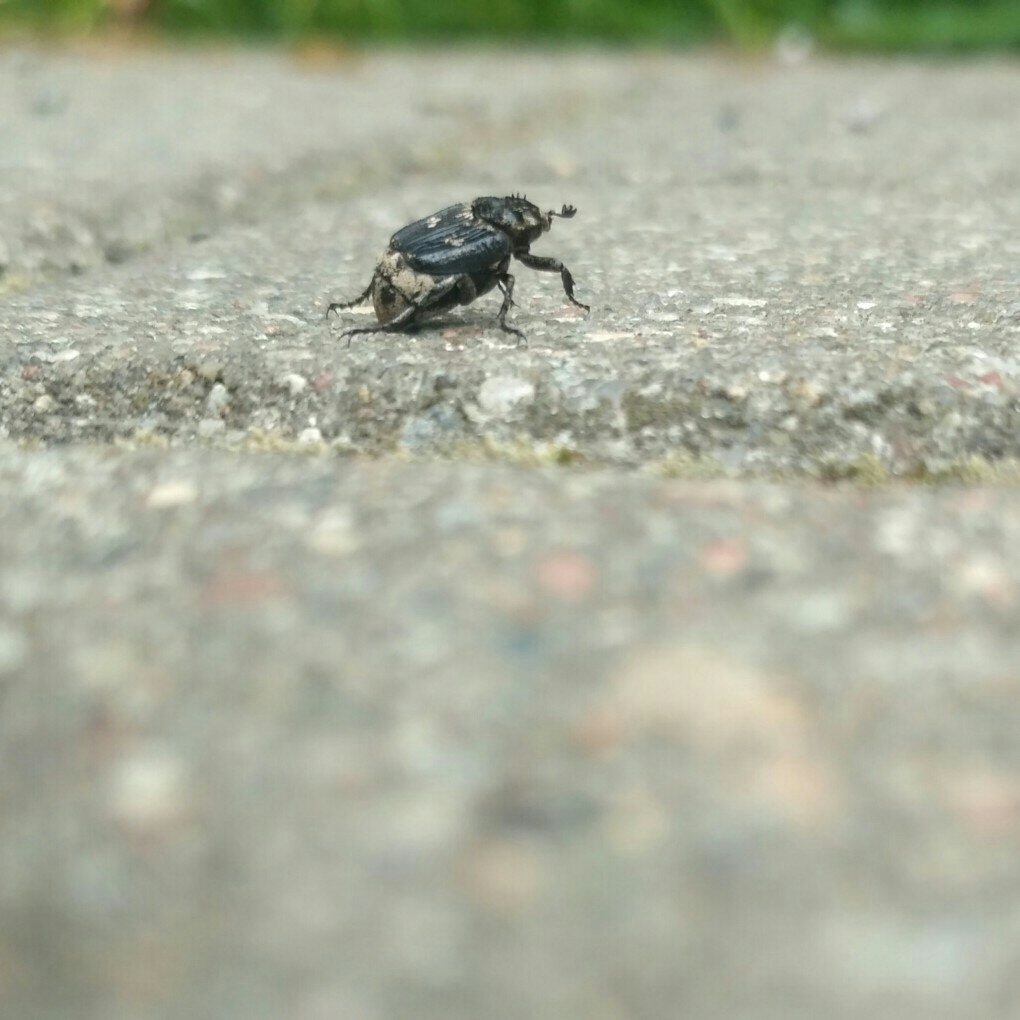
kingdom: Animalia
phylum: Arthropoda
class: Insecta
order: Coleoptera
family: Scarabaeidae
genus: Valgus
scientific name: Valgus hemipterus
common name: Bug flower chafer
